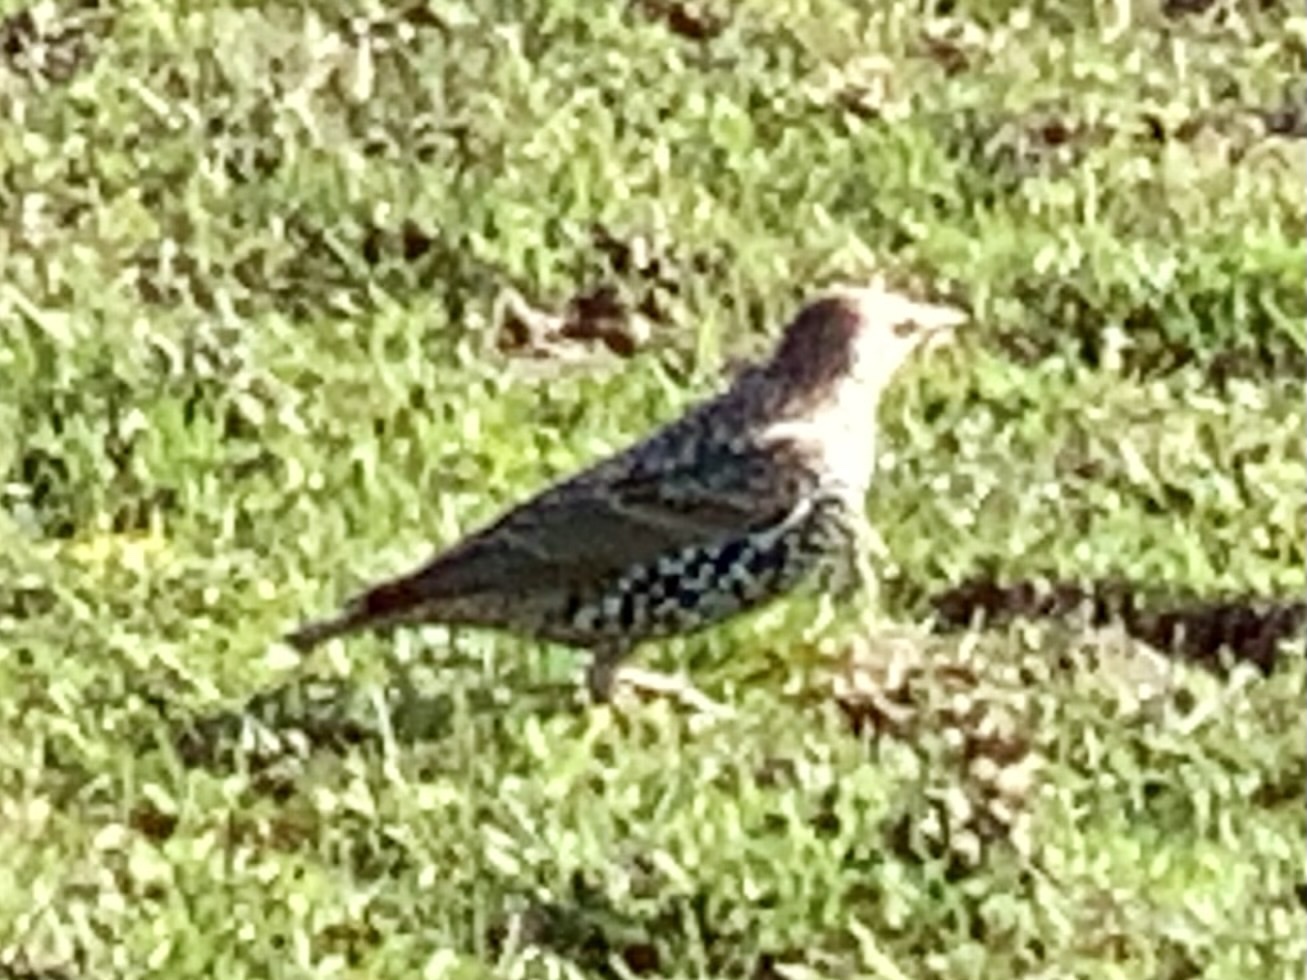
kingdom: Animalia
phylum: Chordata
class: Aves
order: Passeriformes
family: Sturnidae
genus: Sturnus
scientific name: Sturnus vulgaris
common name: Common starling
